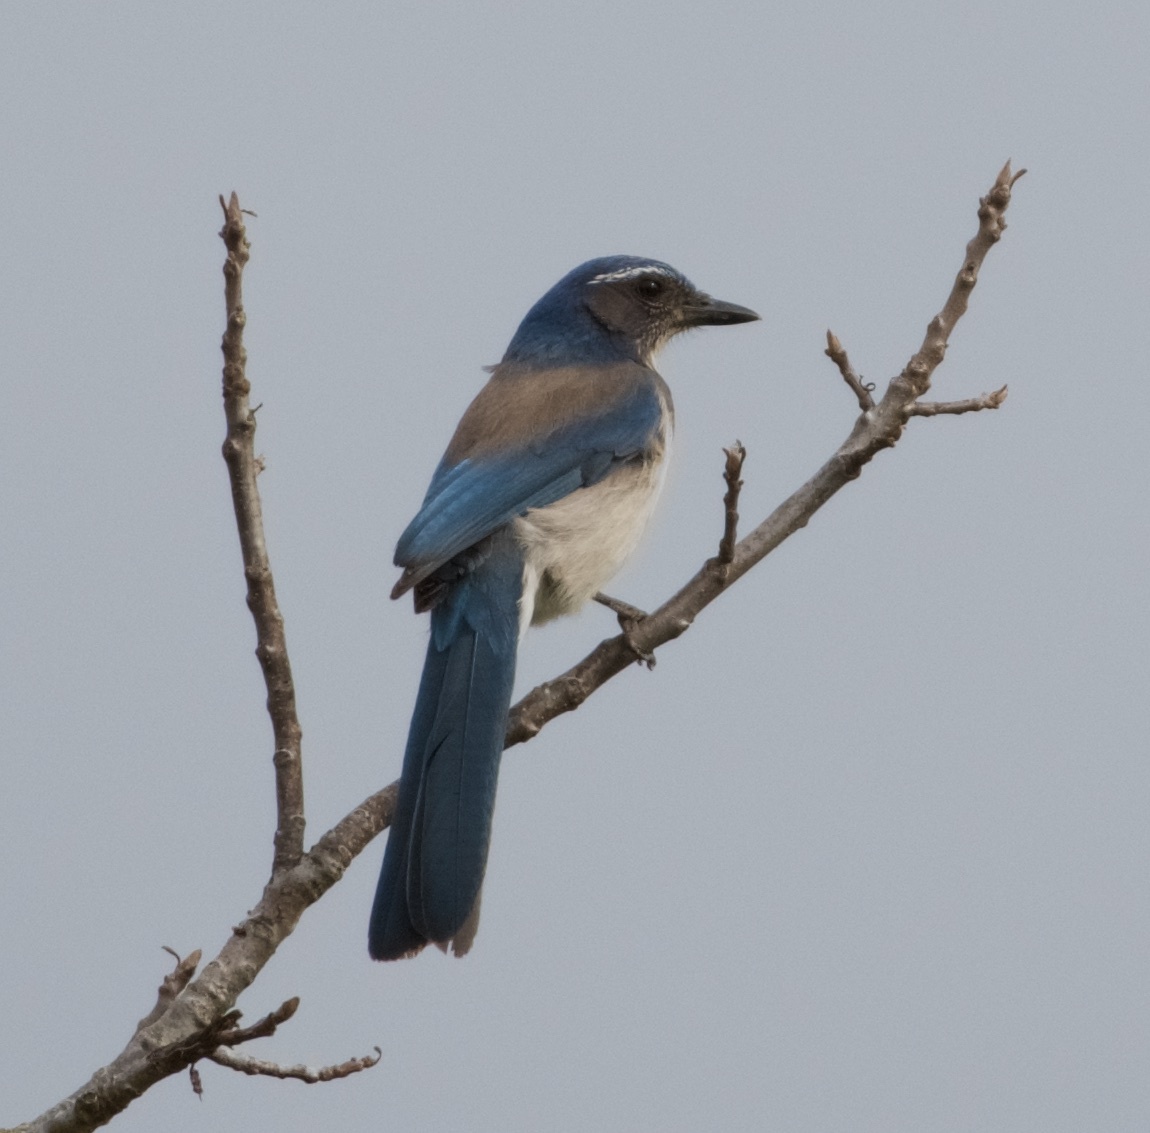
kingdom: Animalia
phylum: Chordata
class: Aves
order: Passeriformes
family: Corvidae
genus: Aphelocoma
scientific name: Aphelocoma californica
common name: California scrub-jay
